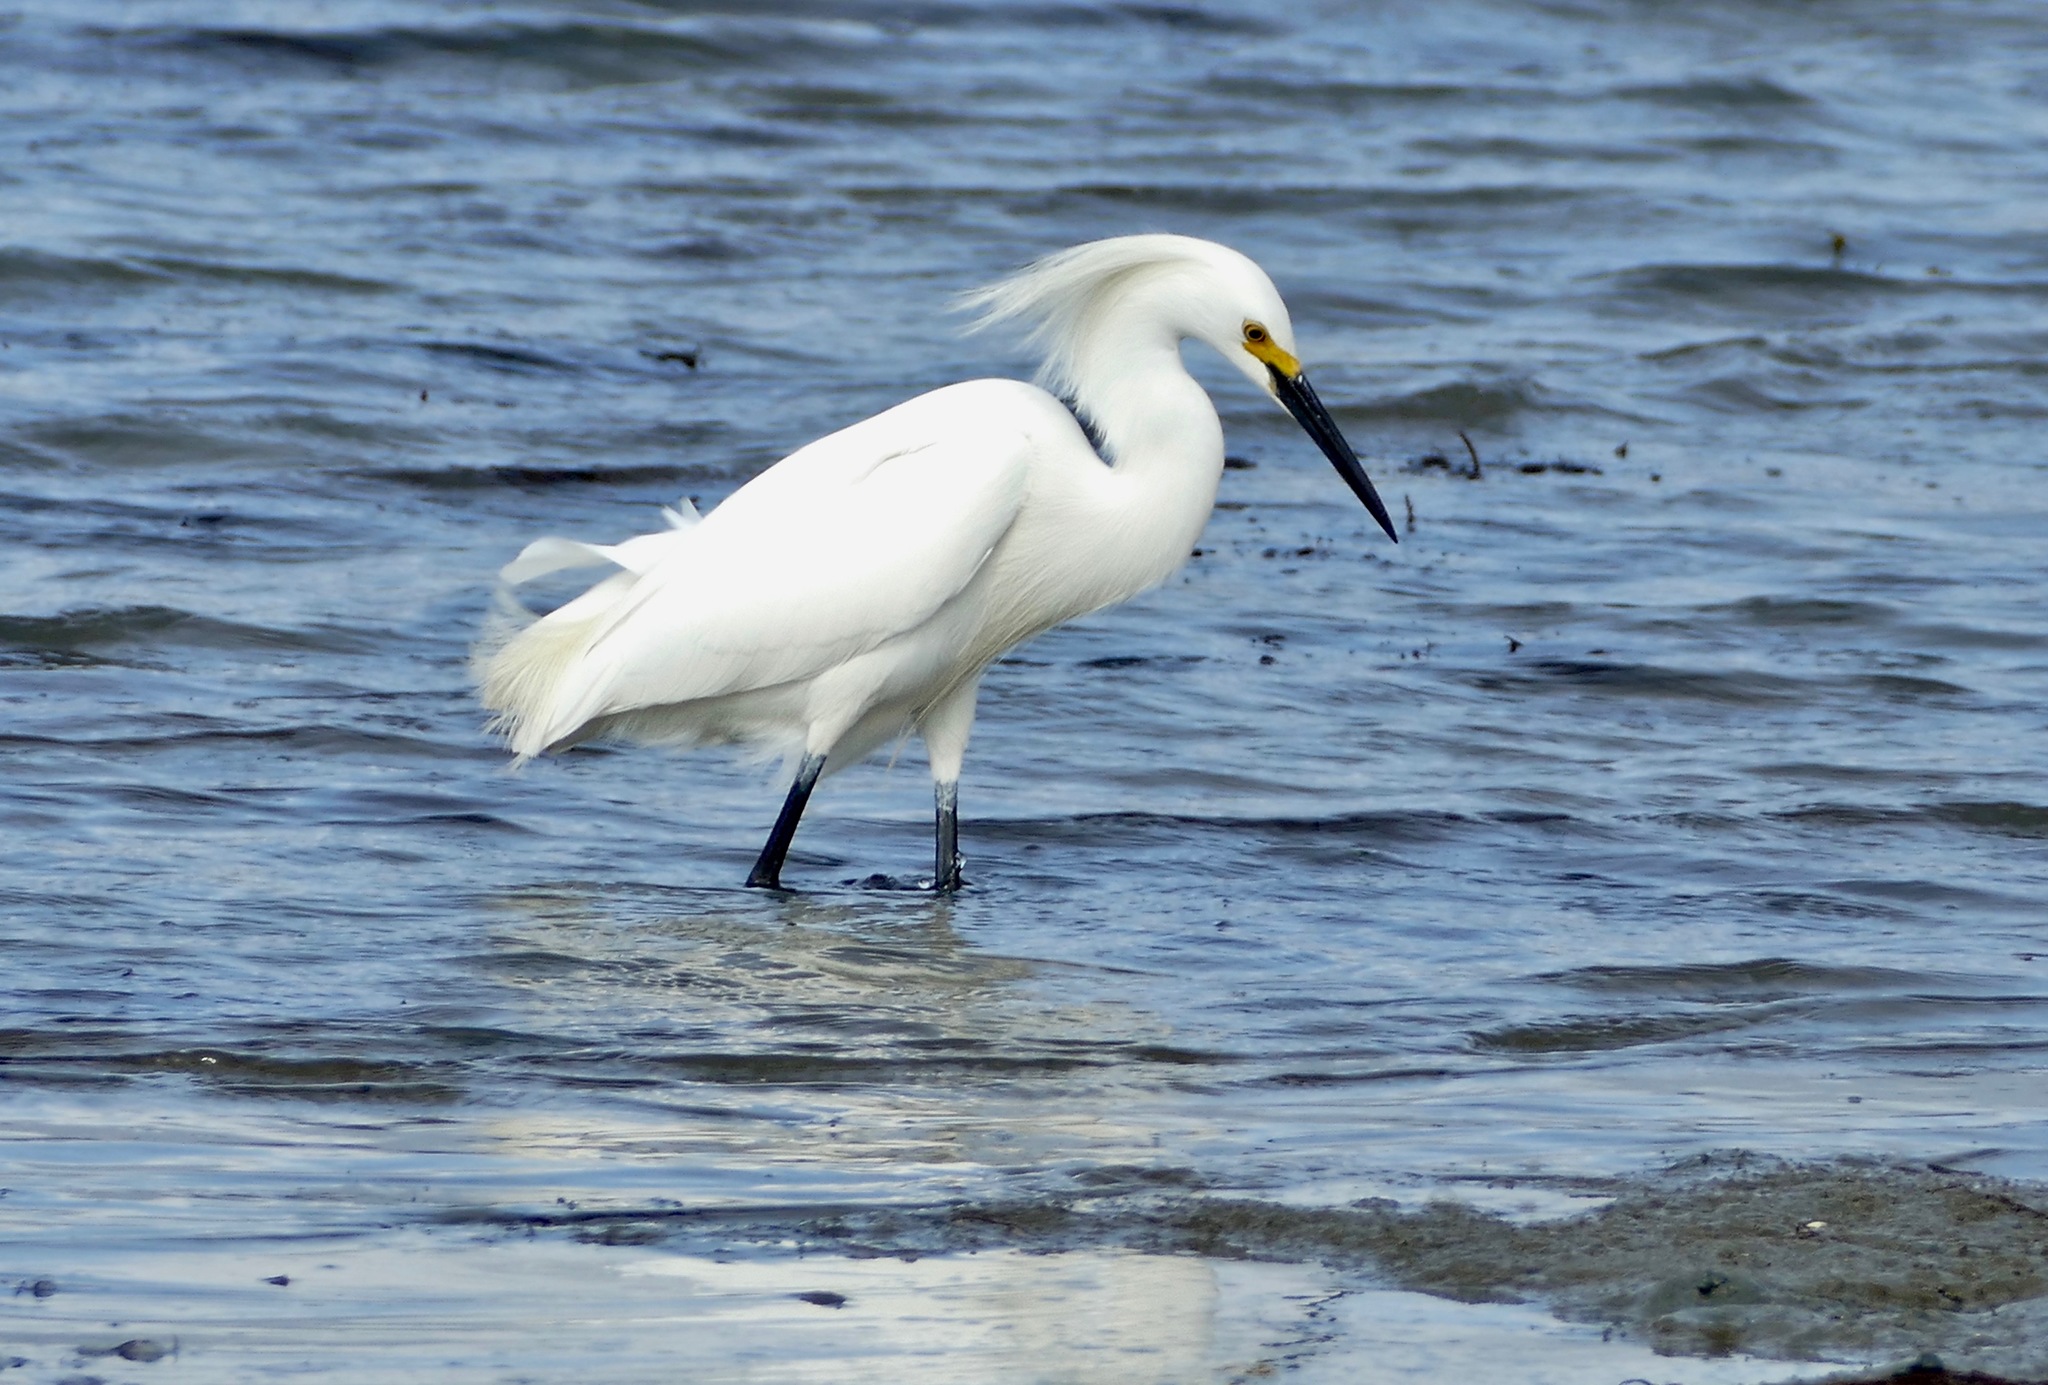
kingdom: Animalia
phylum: Chordata
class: Aves
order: Pelecaniformes
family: Ardeidae
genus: Egretta
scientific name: Egretta thula
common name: Snowy egret
